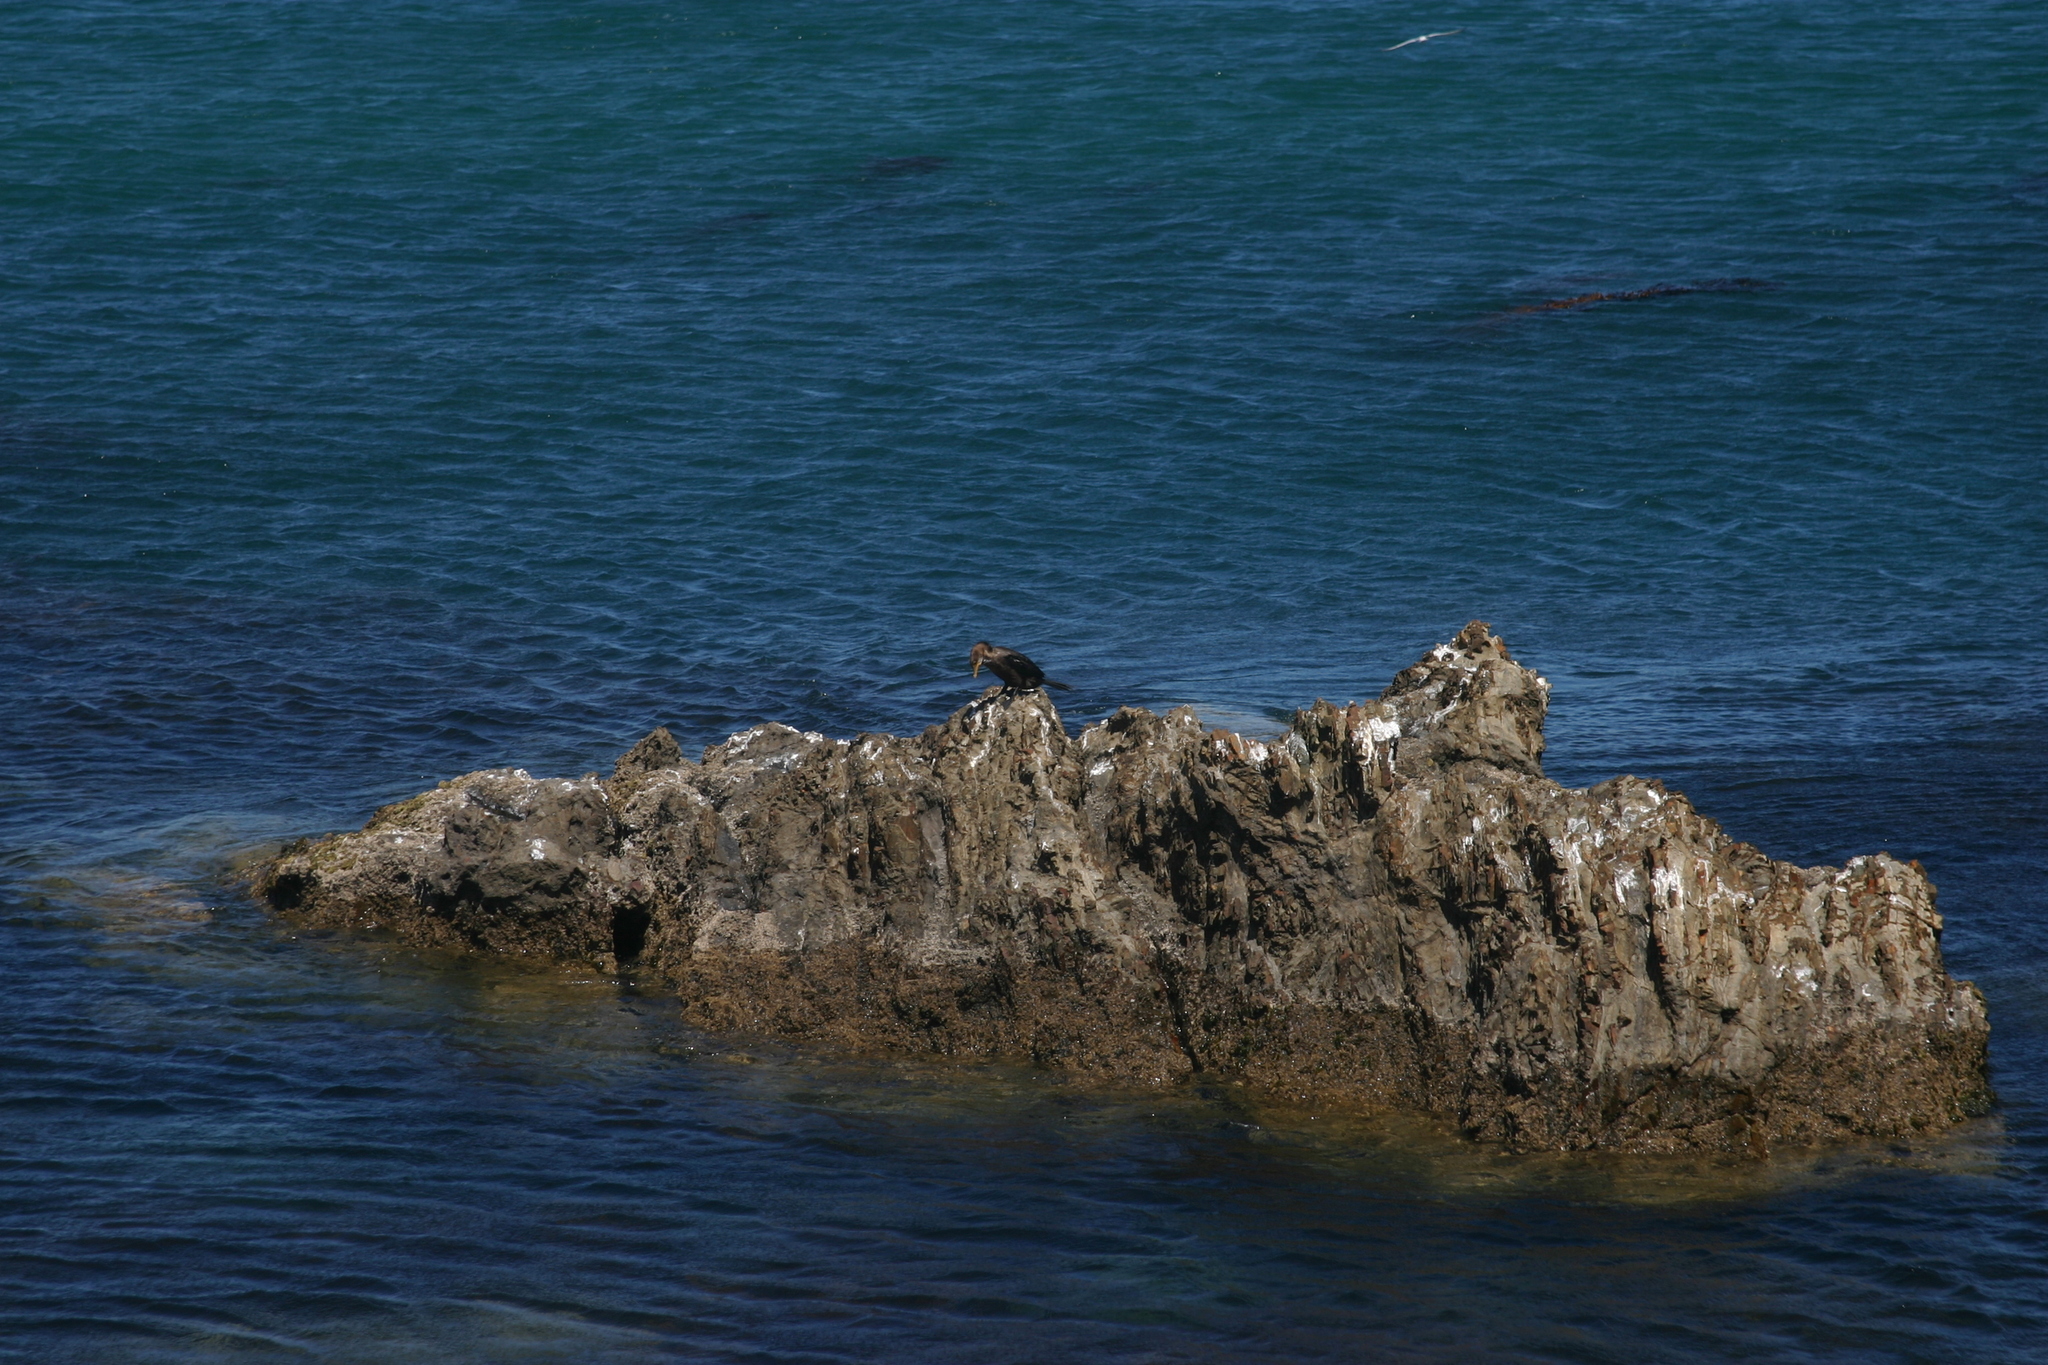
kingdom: Animalia
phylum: Chordata
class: Aves
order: Suliformes
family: Phalacrocoracidae
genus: Microcarbo
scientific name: Microcarbo melanoleucos
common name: Little pied cormorant
